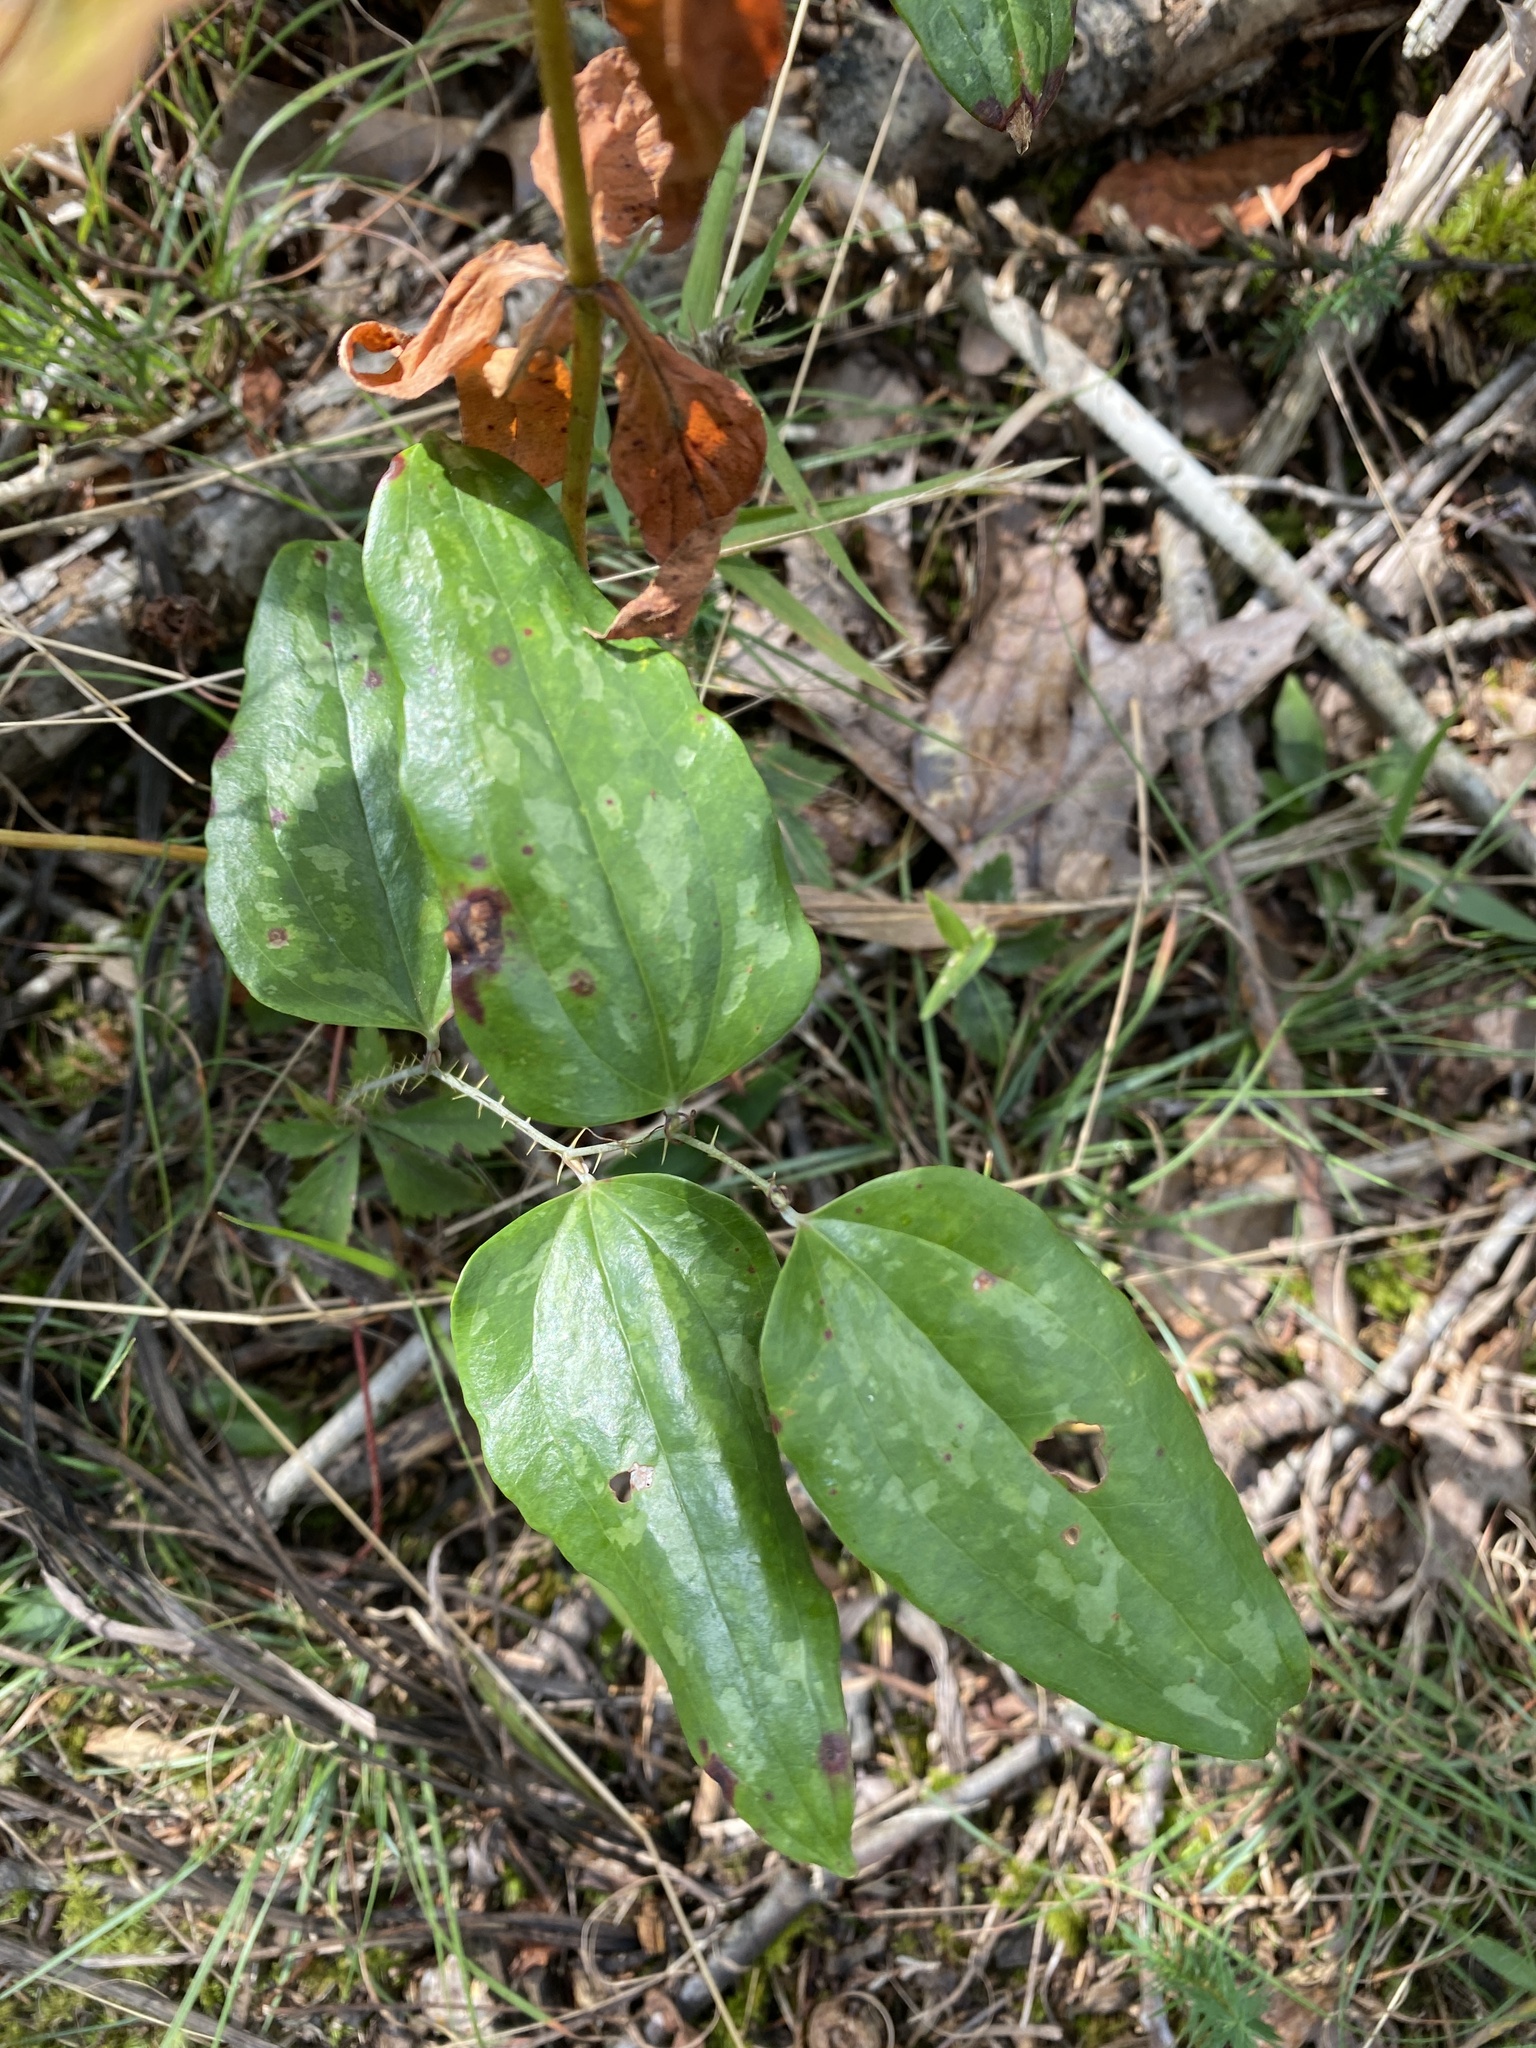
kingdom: Plantae
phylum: Tracheophyta
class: Liliopsida
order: Liliales
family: Smilacaceae
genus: Smilax
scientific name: Smilax glauca
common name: Cat greenbrier
